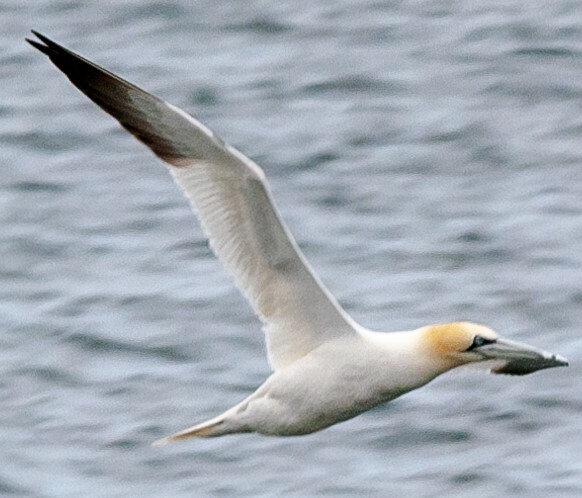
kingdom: Animalia
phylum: Chordata
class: Aves
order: Suliformes
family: Sulidae
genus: Morus
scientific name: Morus bassanus
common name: Northern gannet
